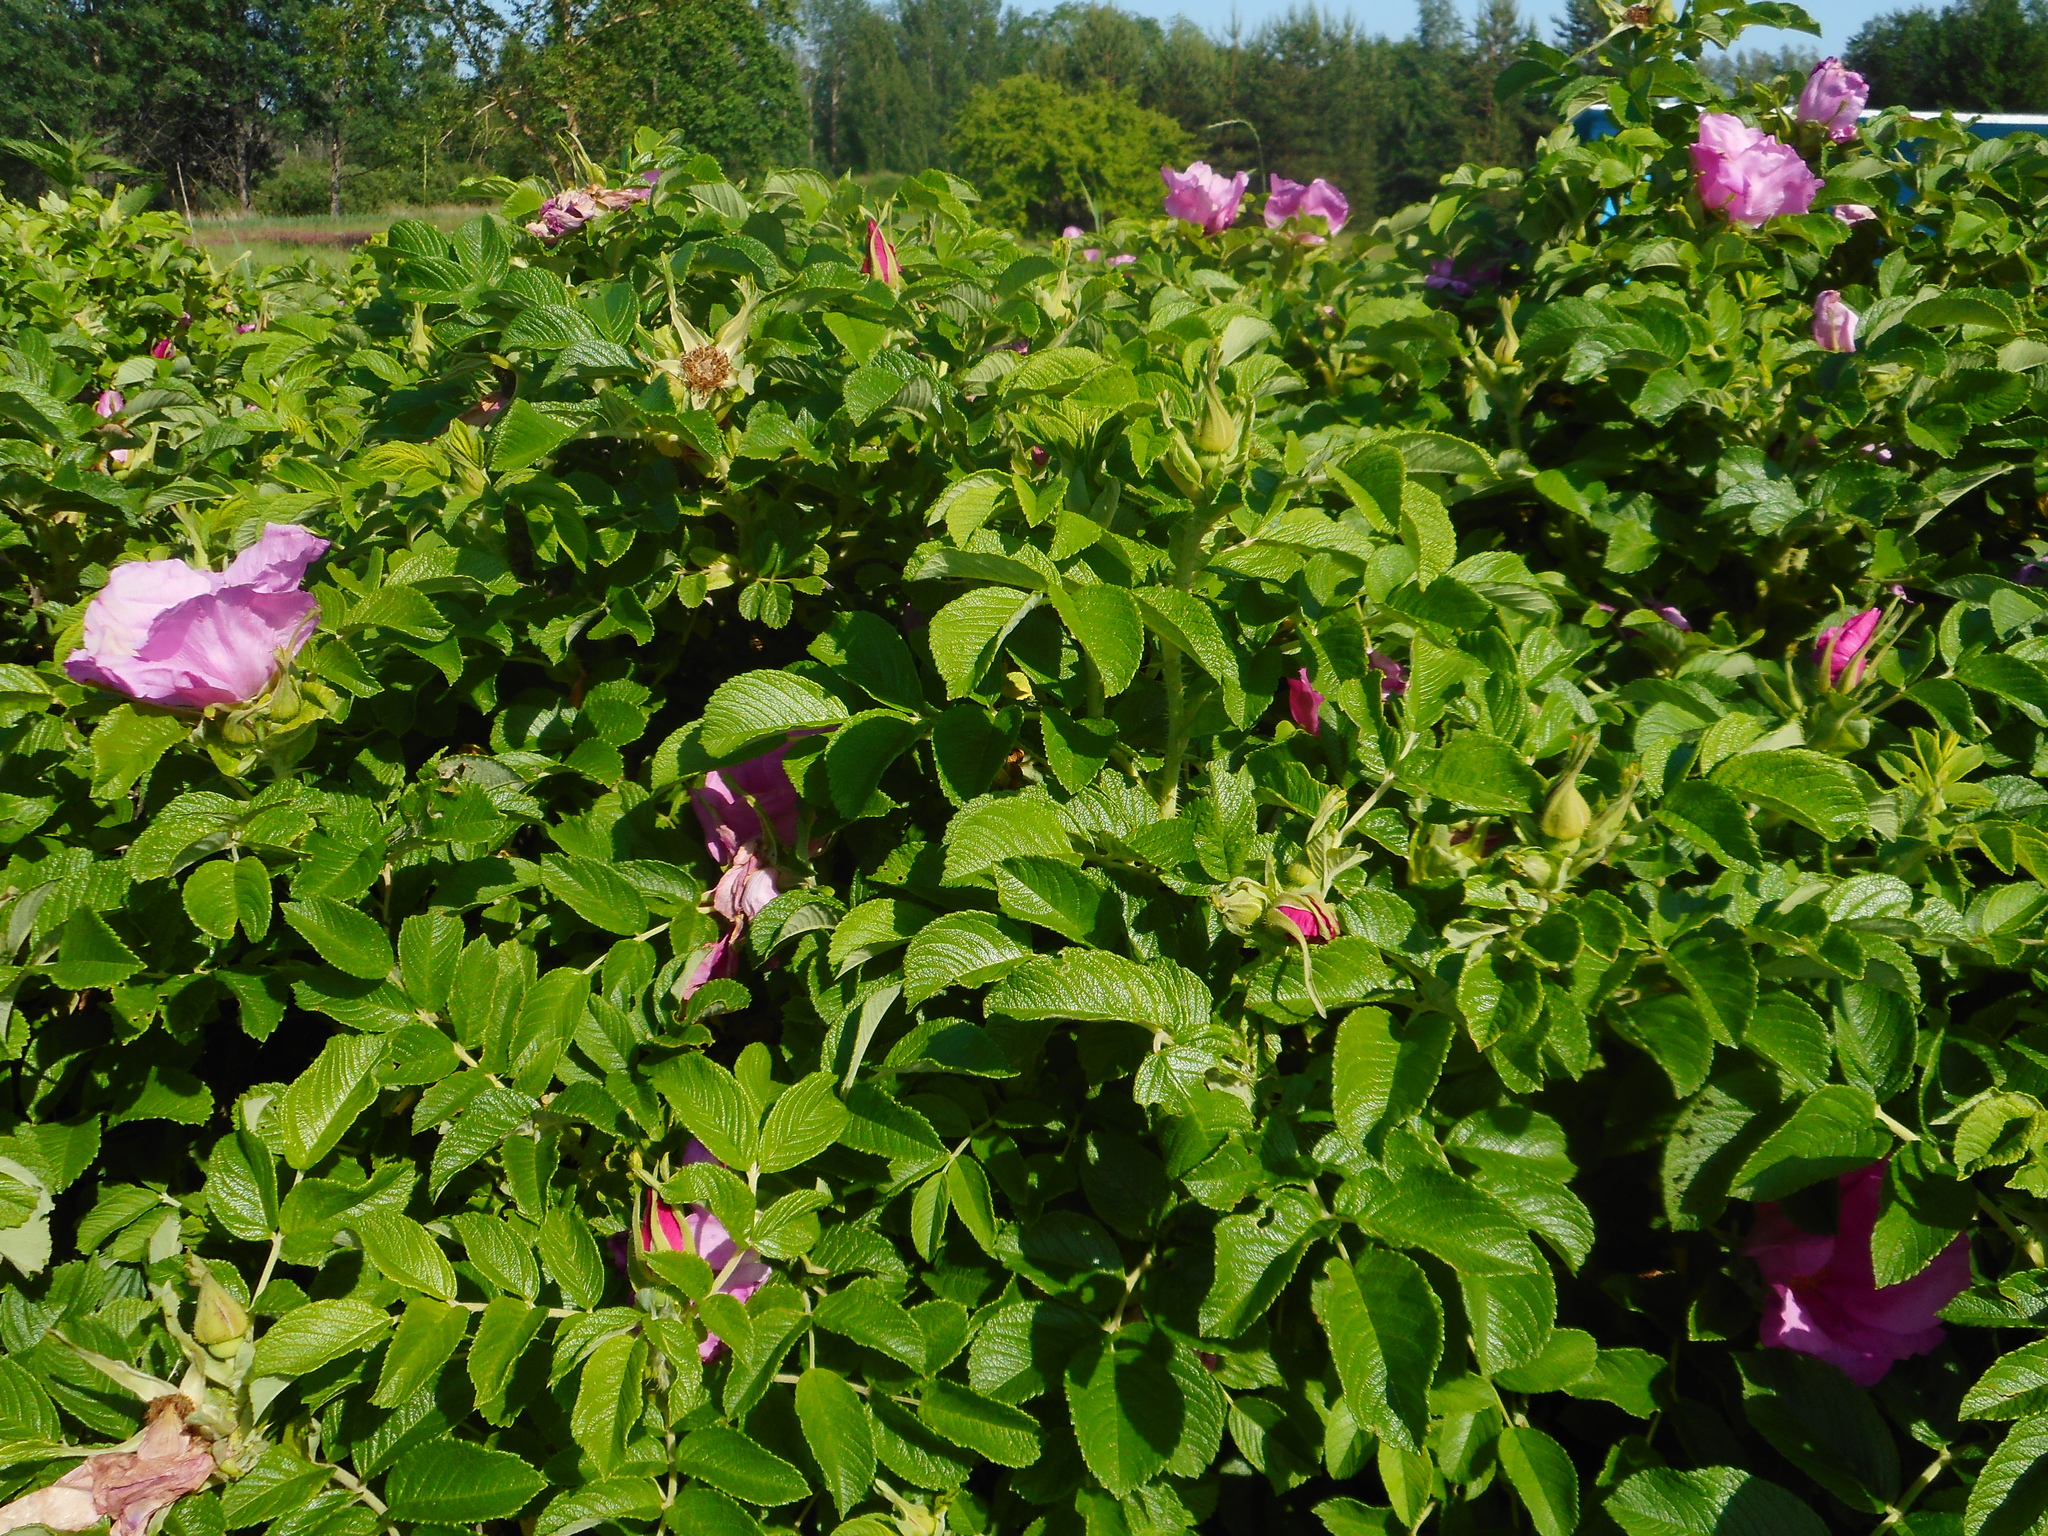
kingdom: Plantae
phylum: Tracheophyta
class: Magnoliopsida
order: Rosales
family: Rosaceae
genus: Rosa
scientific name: Rosa rugosa
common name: Japanese rose
